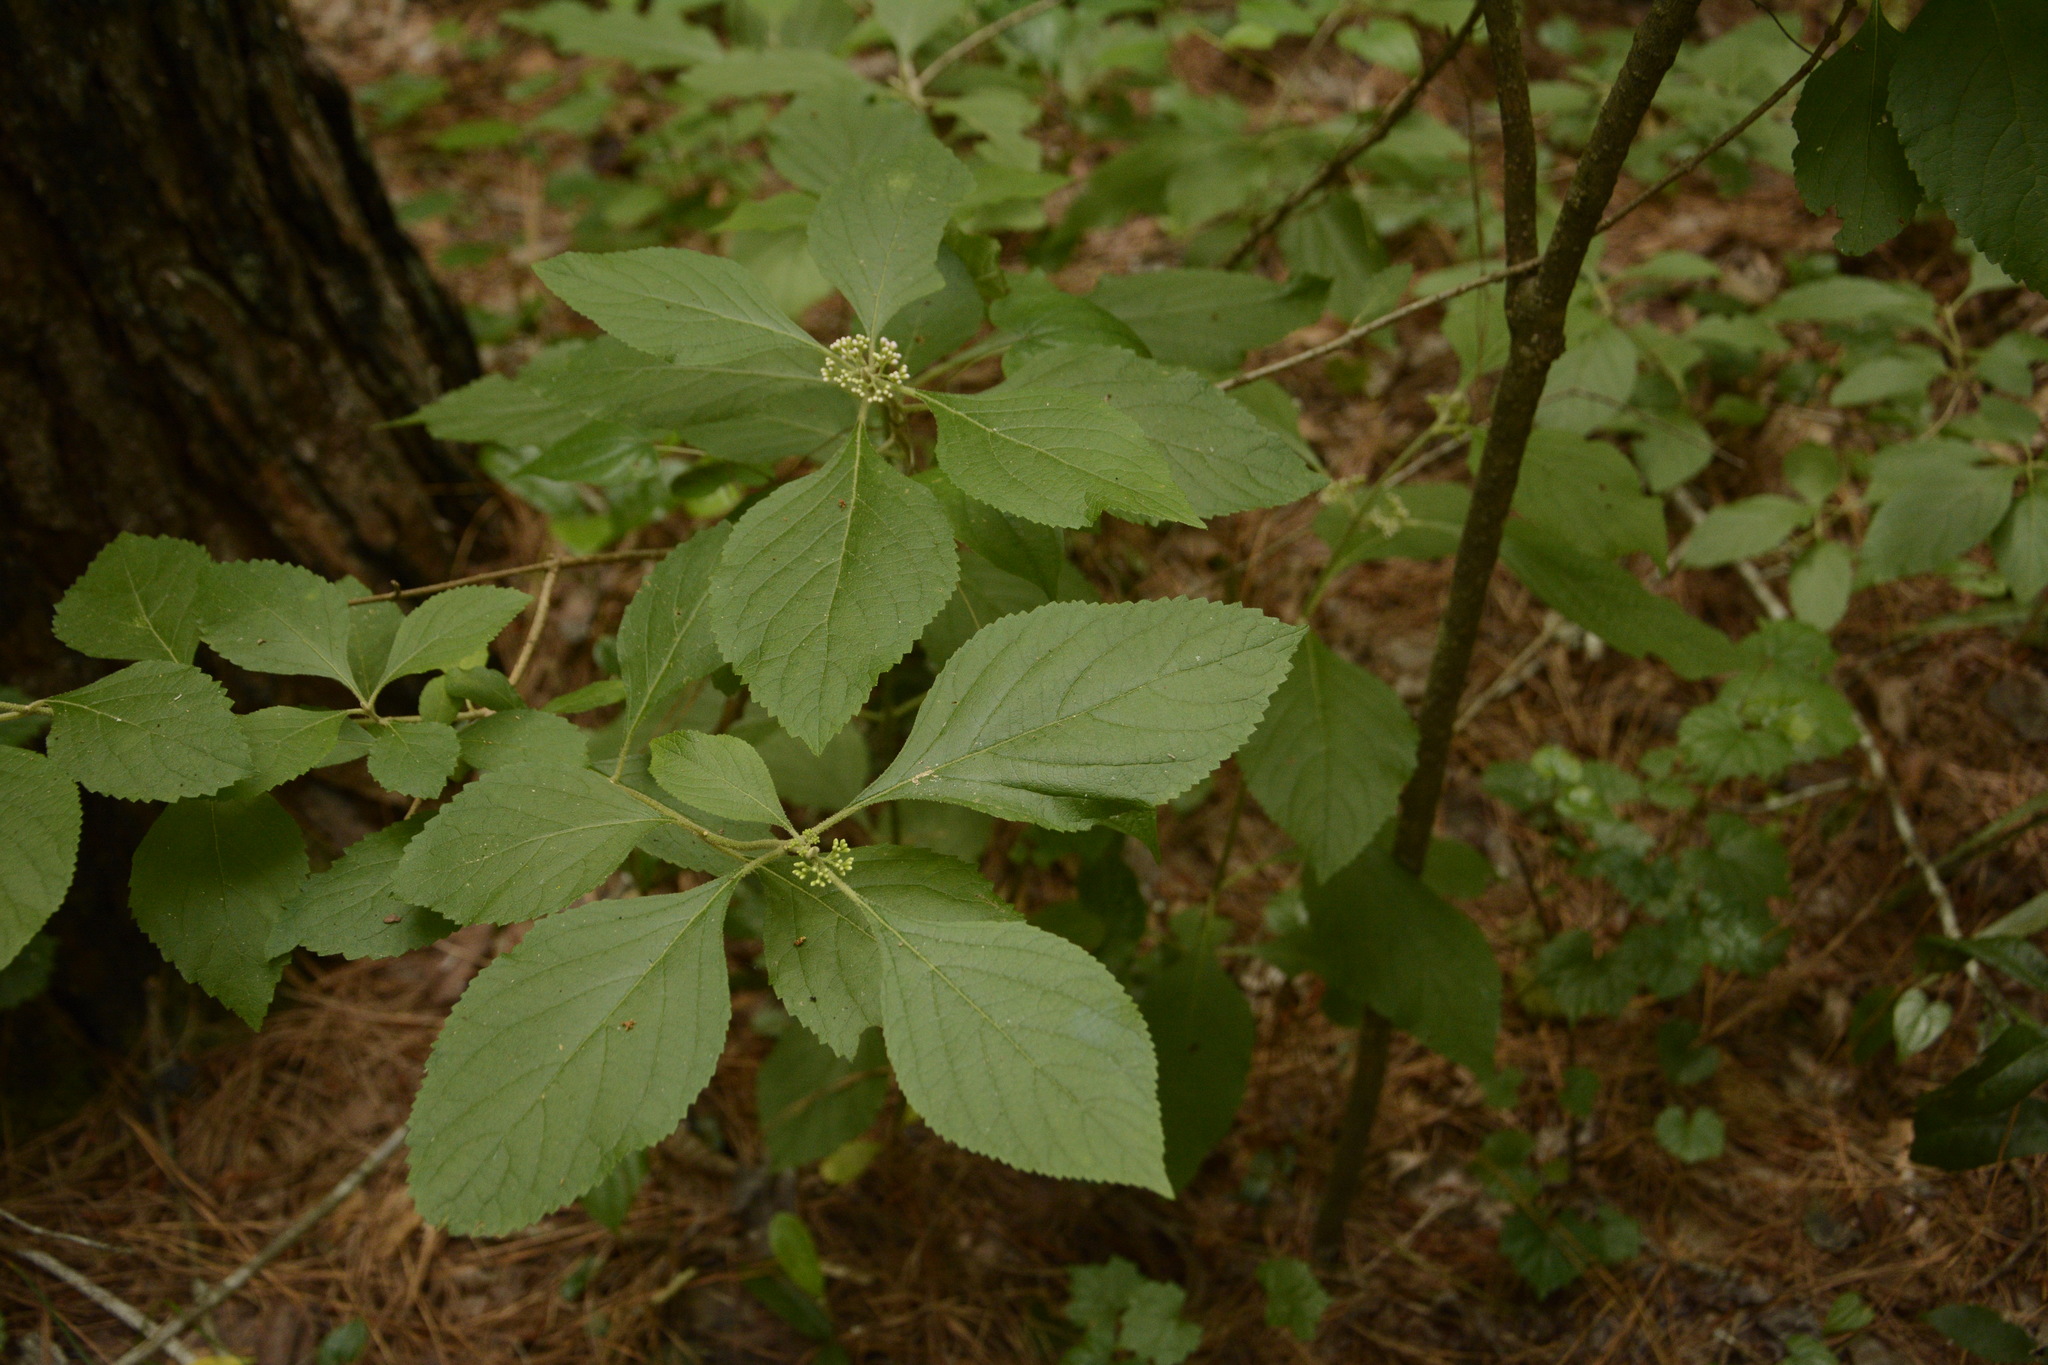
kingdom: Plantae
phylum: Tracheophyta
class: Magnoliopsida
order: Lamiales
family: Lamiaceae
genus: Callicarpa
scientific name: Callicarpa americana
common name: American beautyberry
